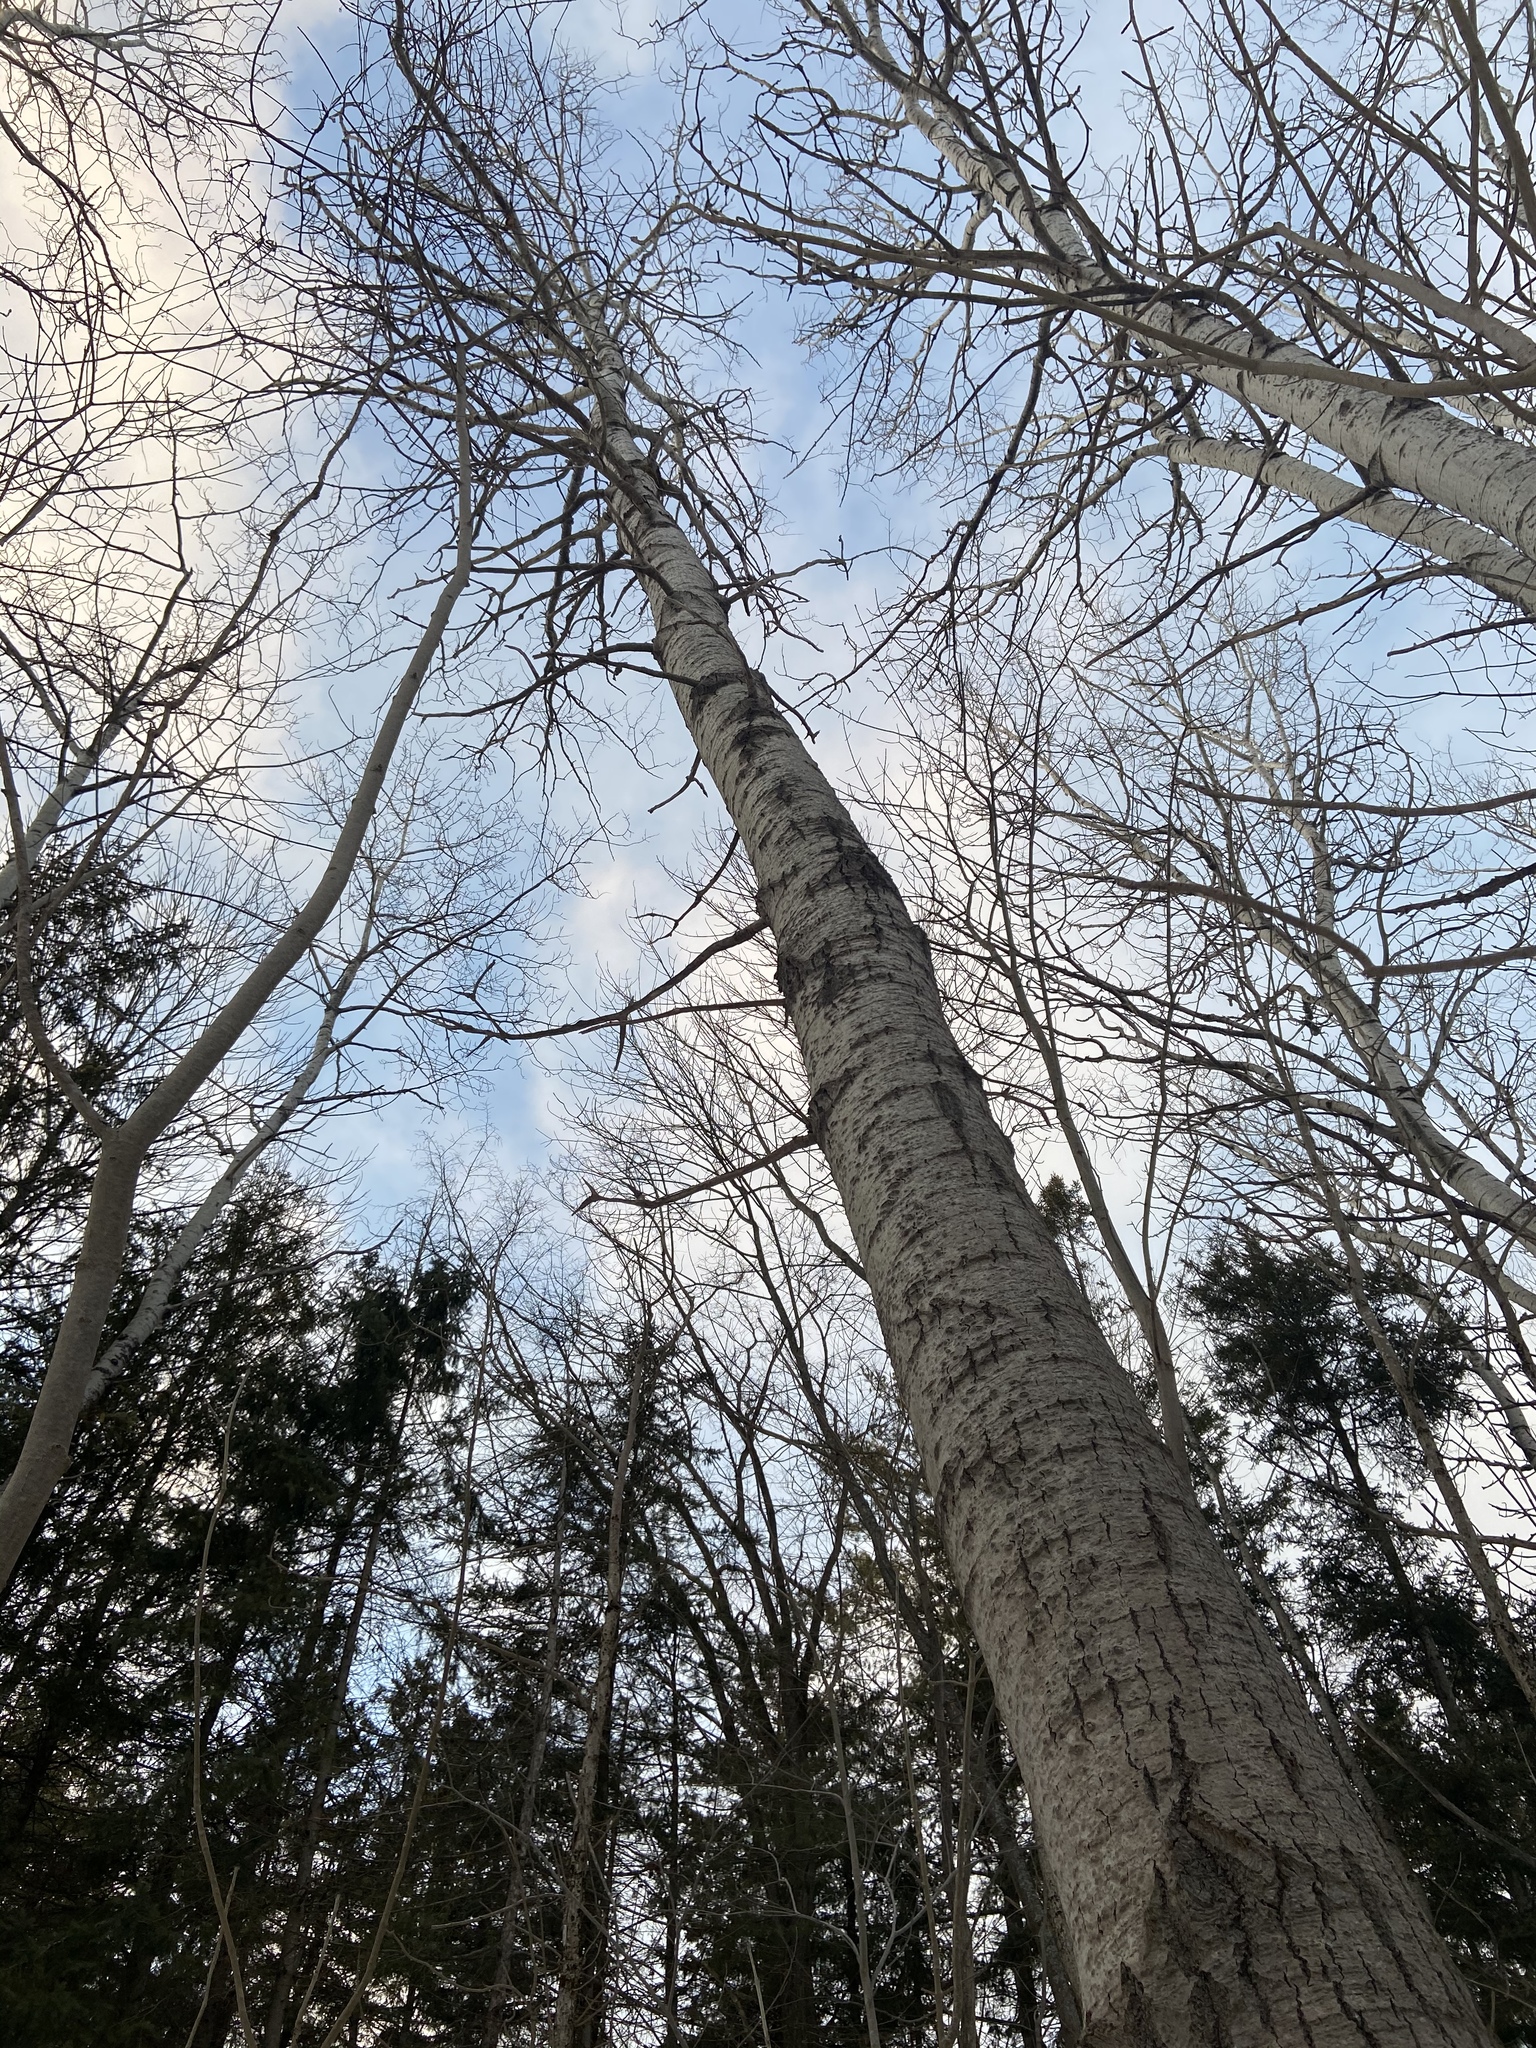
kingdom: Plantae
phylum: Tracheophyta
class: Magnoliopsida
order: Malpighiales
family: Salicaceae
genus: Populus
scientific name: Populus tremuloides
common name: Quaking aspen
